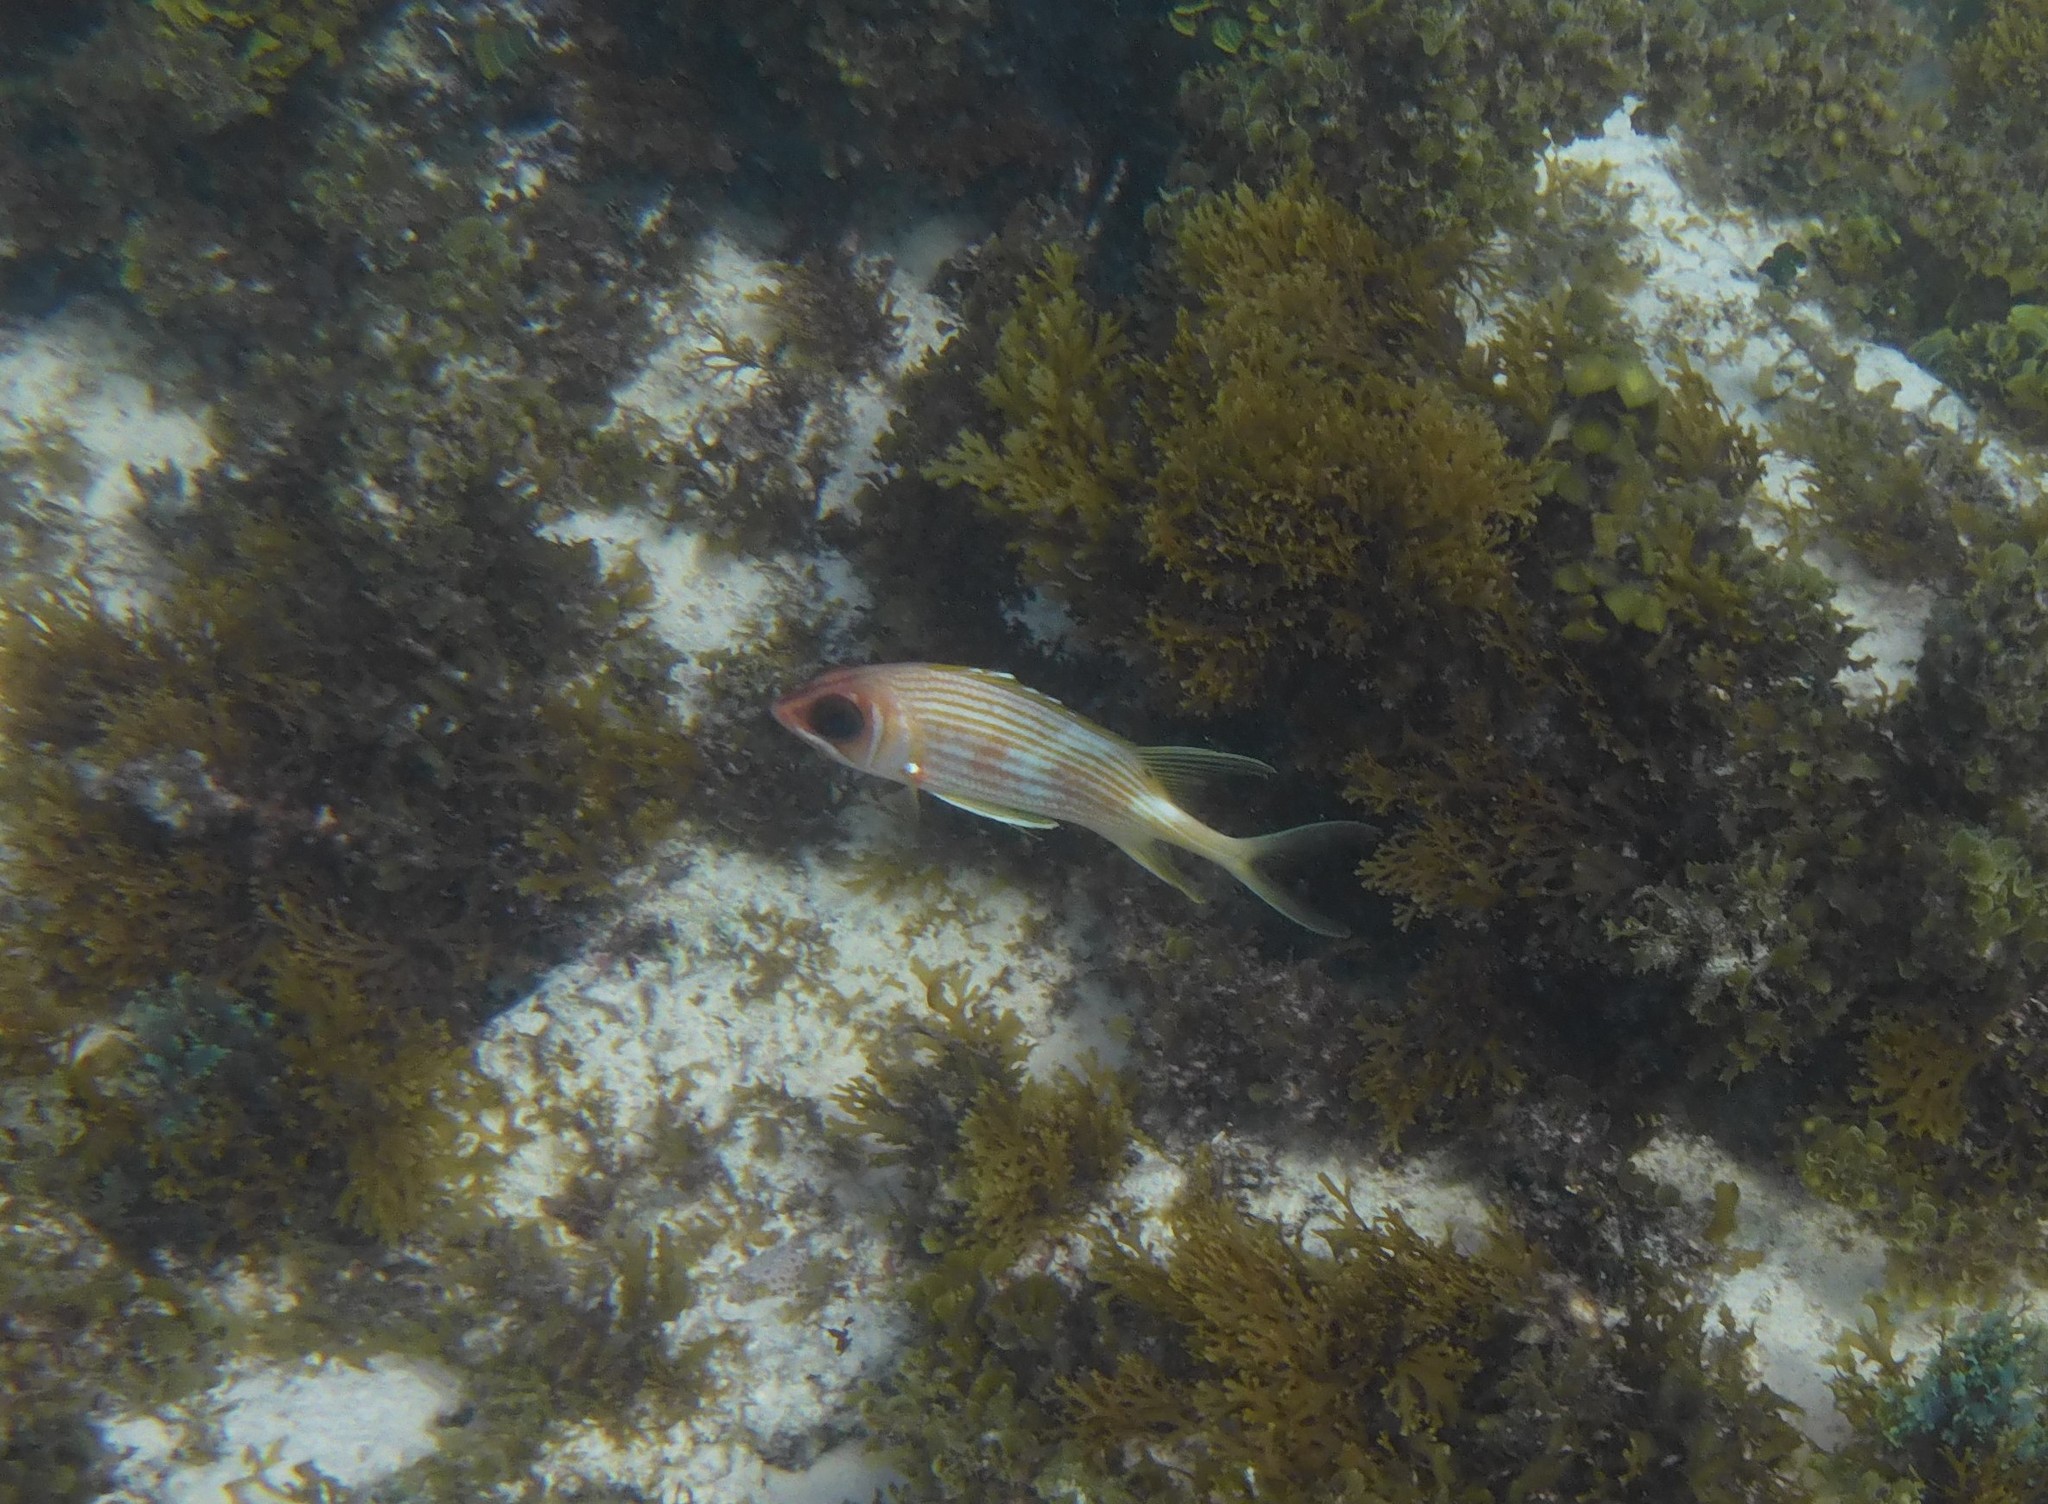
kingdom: Animalia
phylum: Chordata
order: Beryciformes
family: Holocentridae
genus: Holocentrus
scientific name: Holocentrus rufus
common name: Longspine squirrelfish
